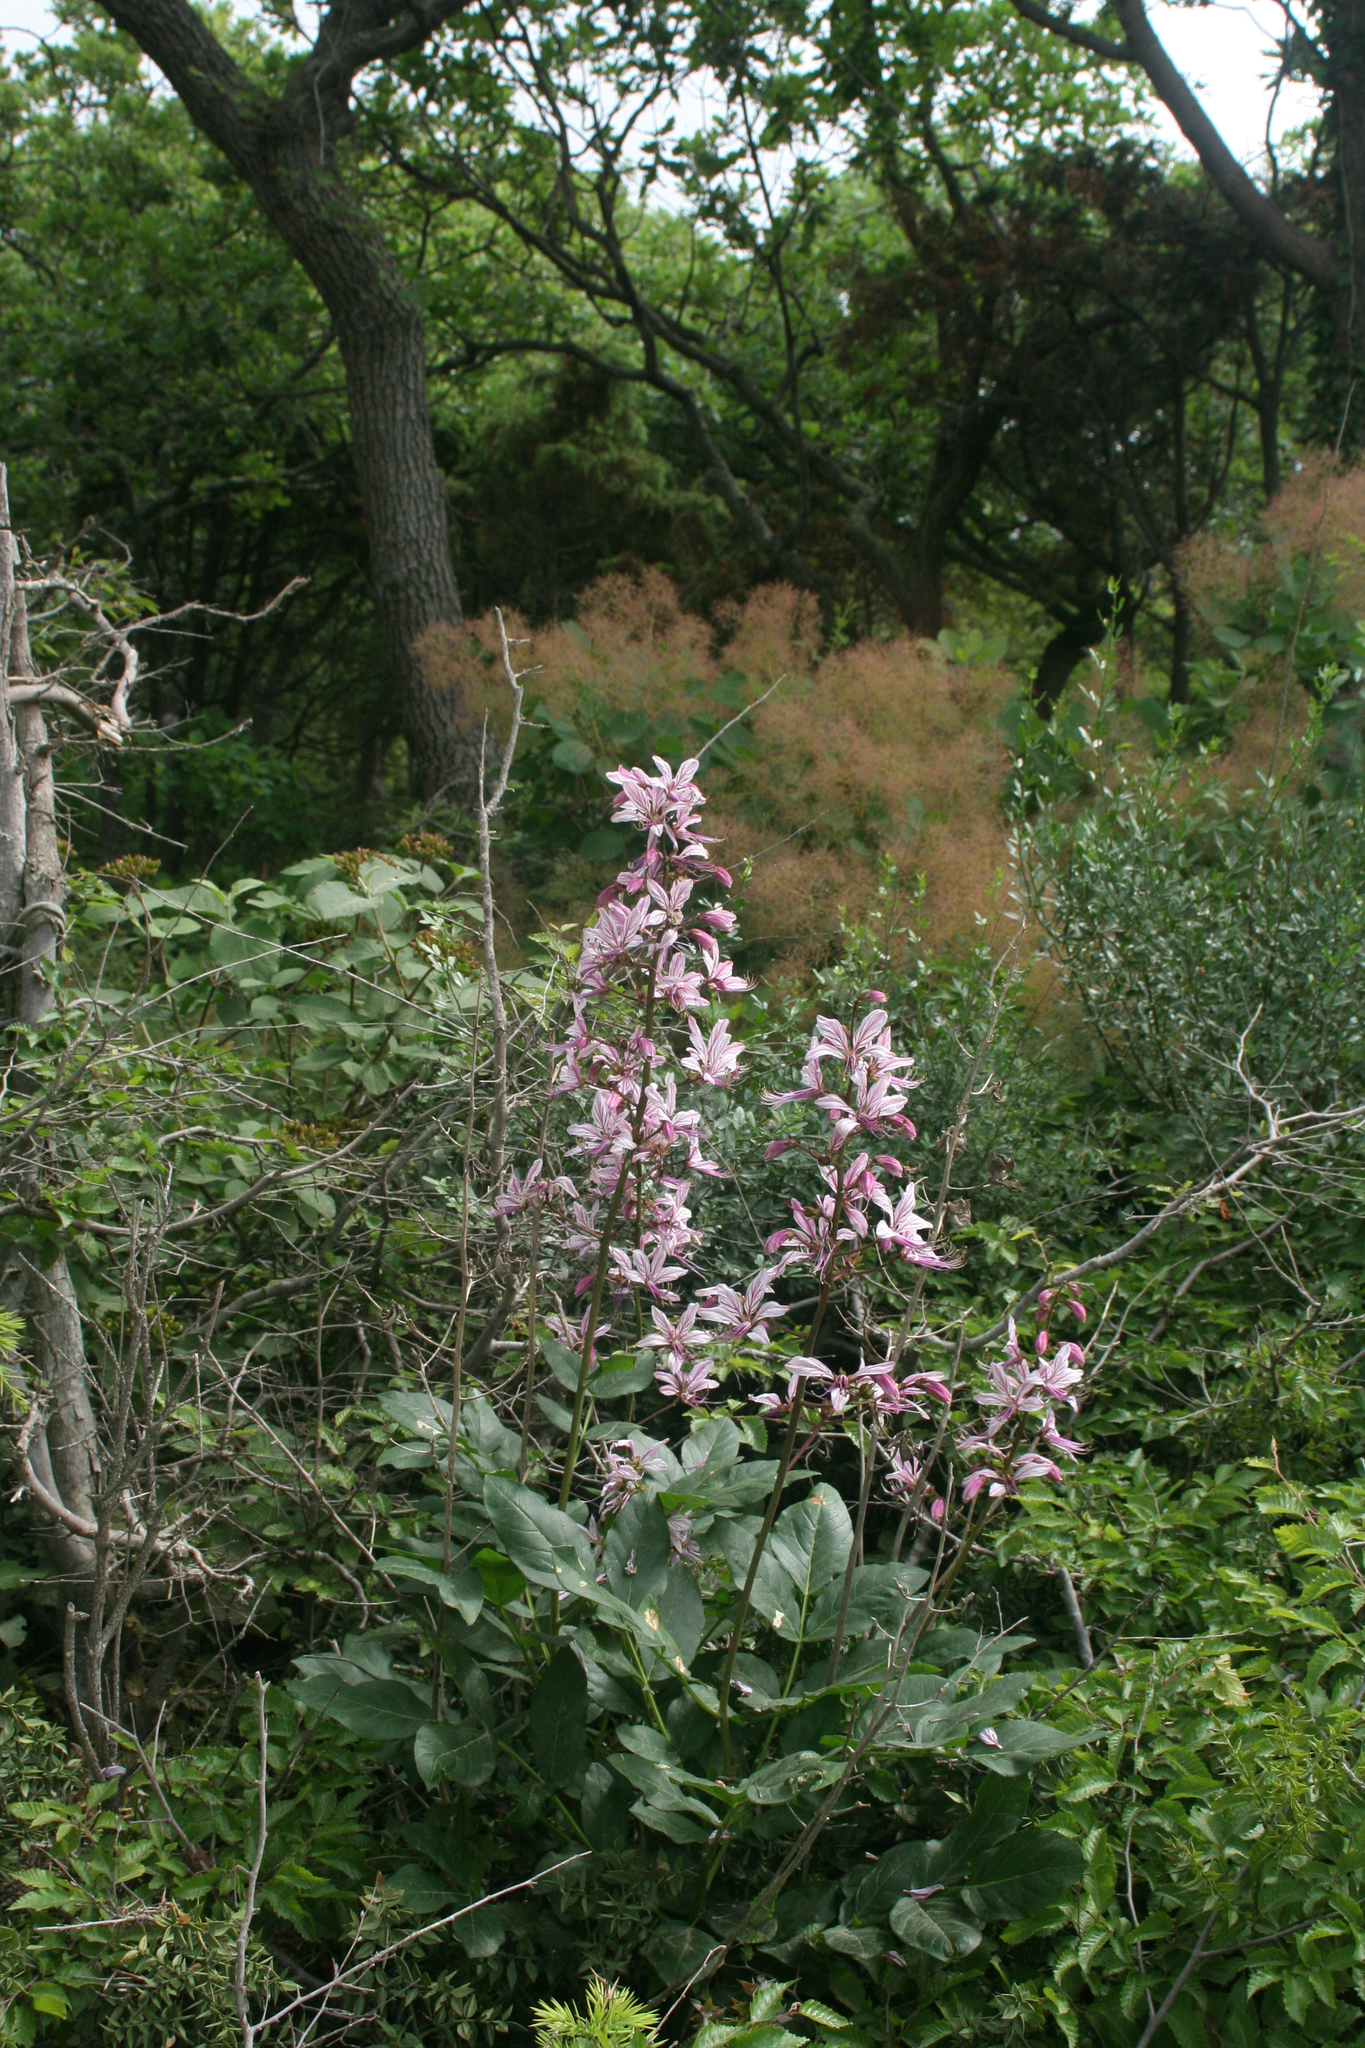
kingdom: Plantae
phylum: Tracheophyta
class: Magnoliopsida
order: Sapindales
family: Rutaceae
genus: Dictamnus
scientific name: Dictamnus albus
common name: Gasplant
